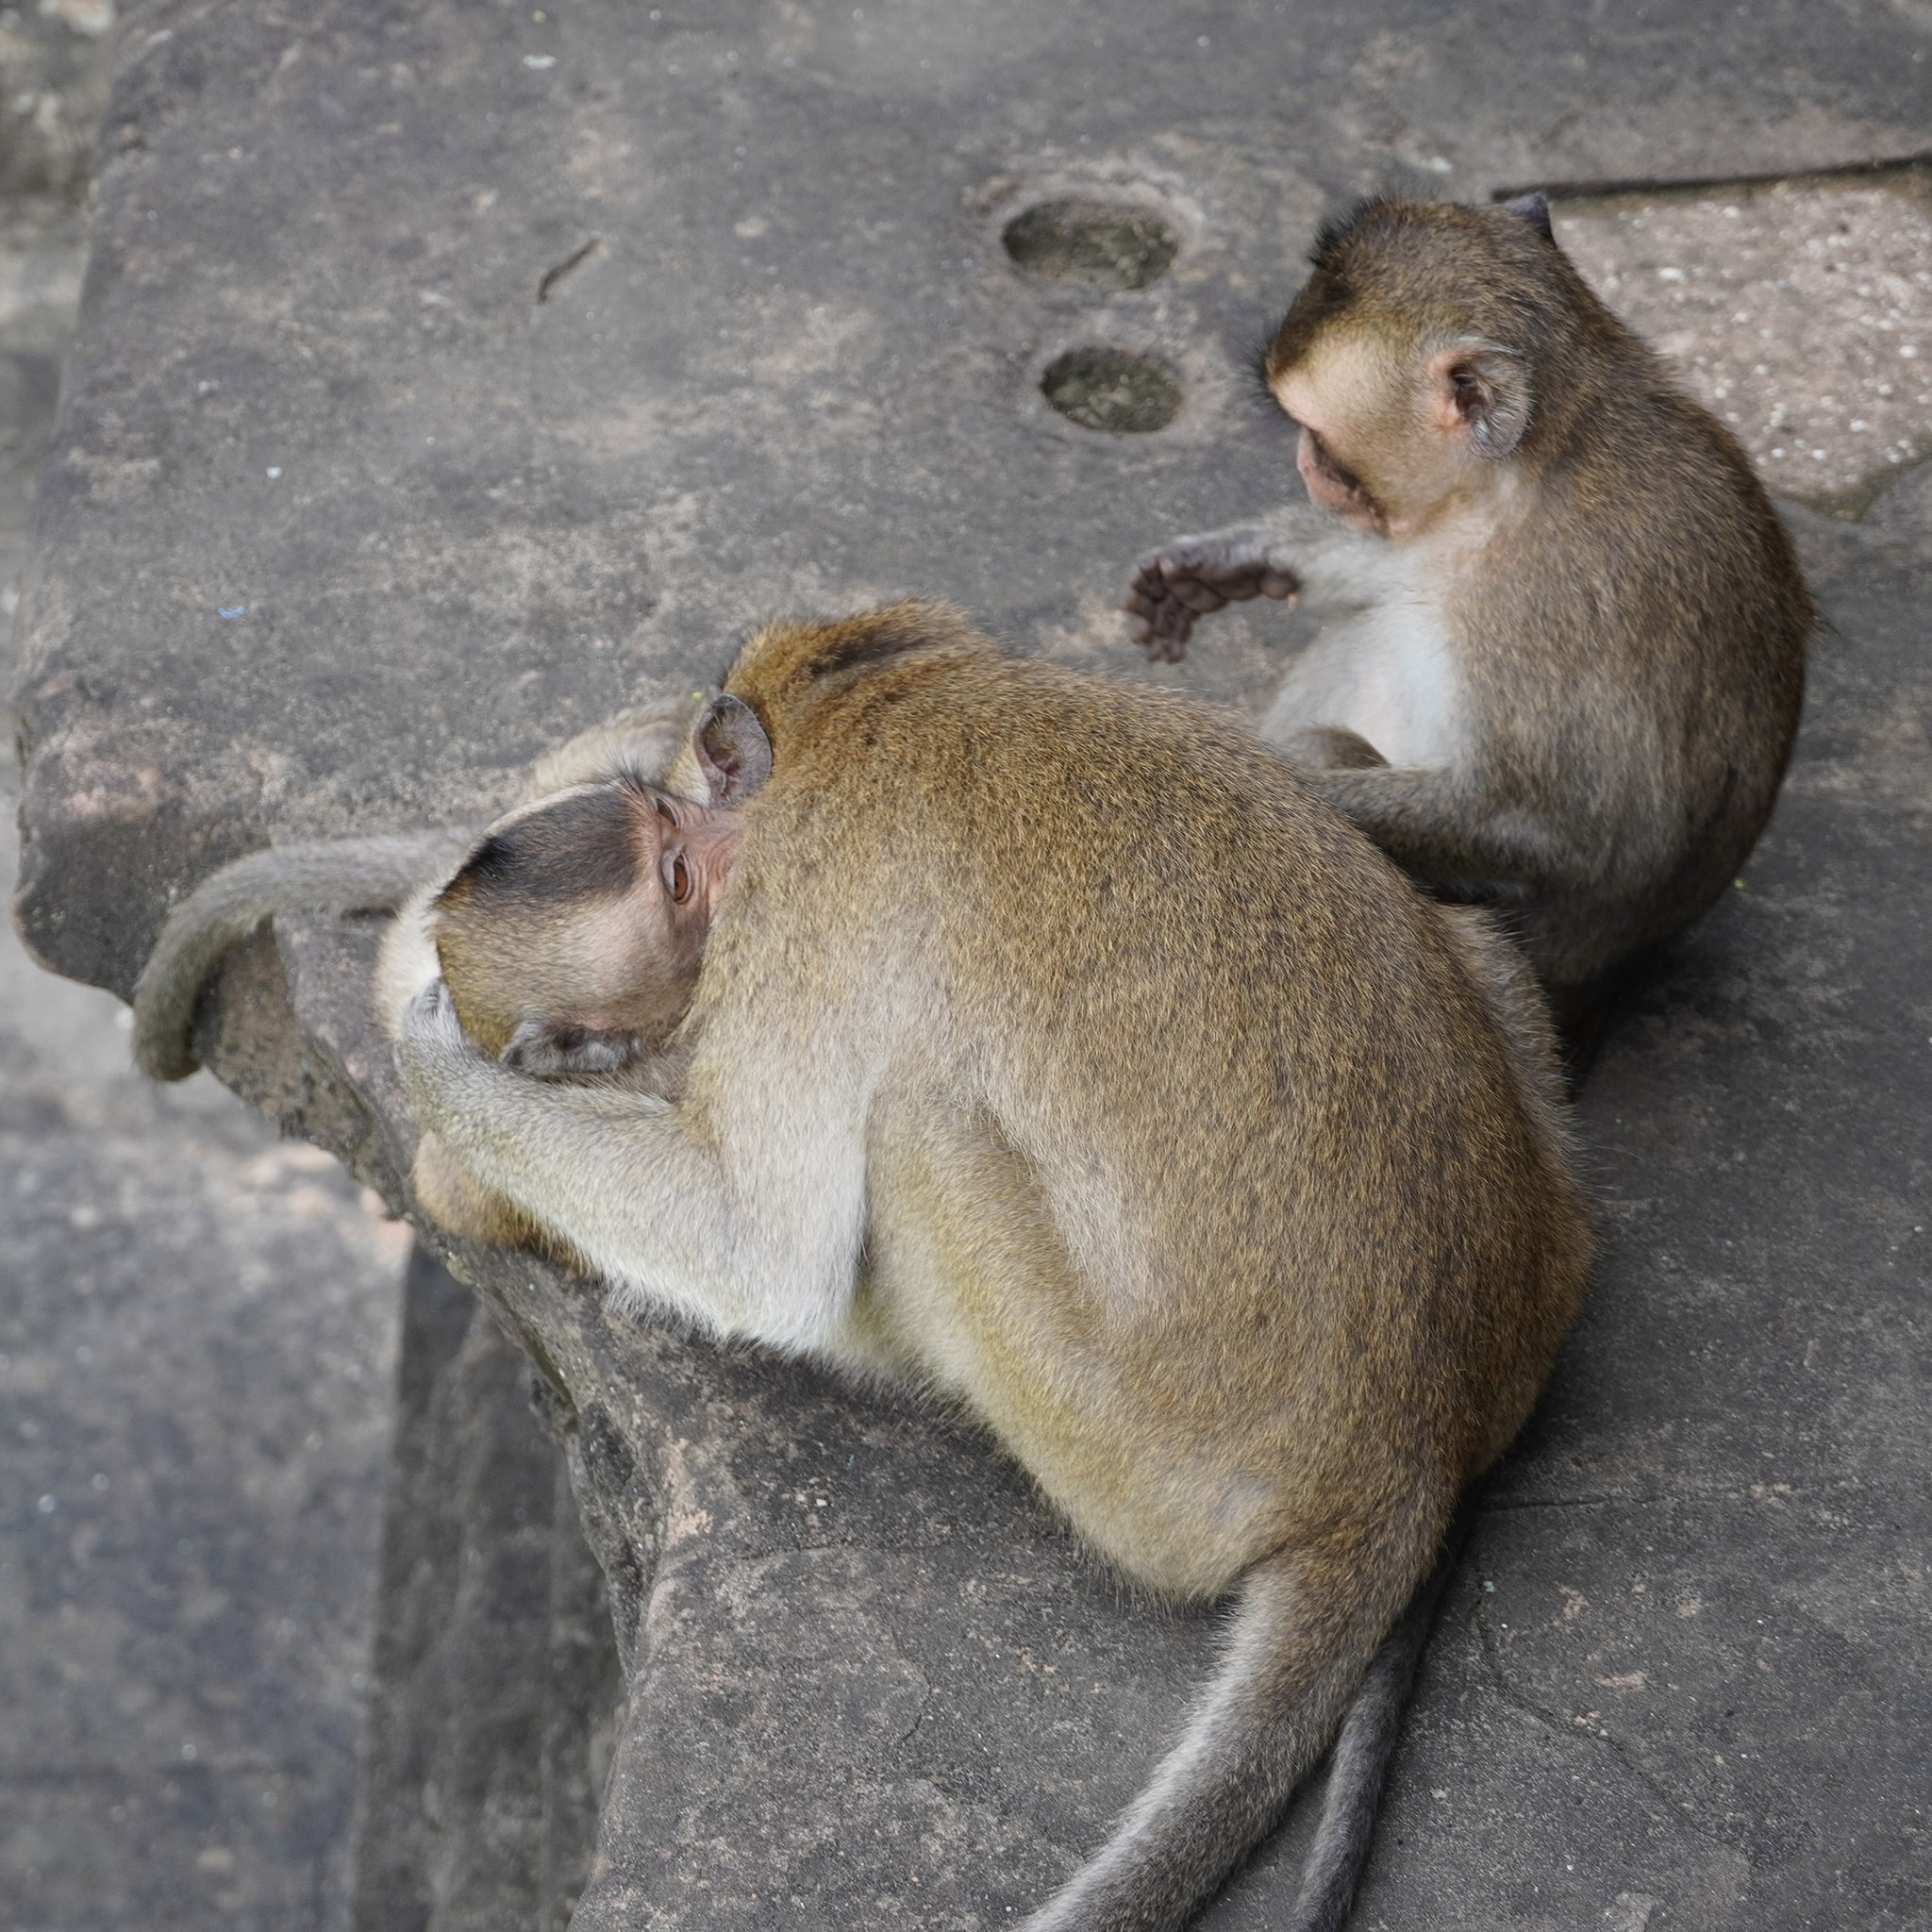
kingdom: Animalia
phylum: Chordata
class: Mammalia
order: Primates
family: Cercopithecidae
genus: Macaca
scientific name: Macaca fascicularis
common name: Crab-eating macaque
